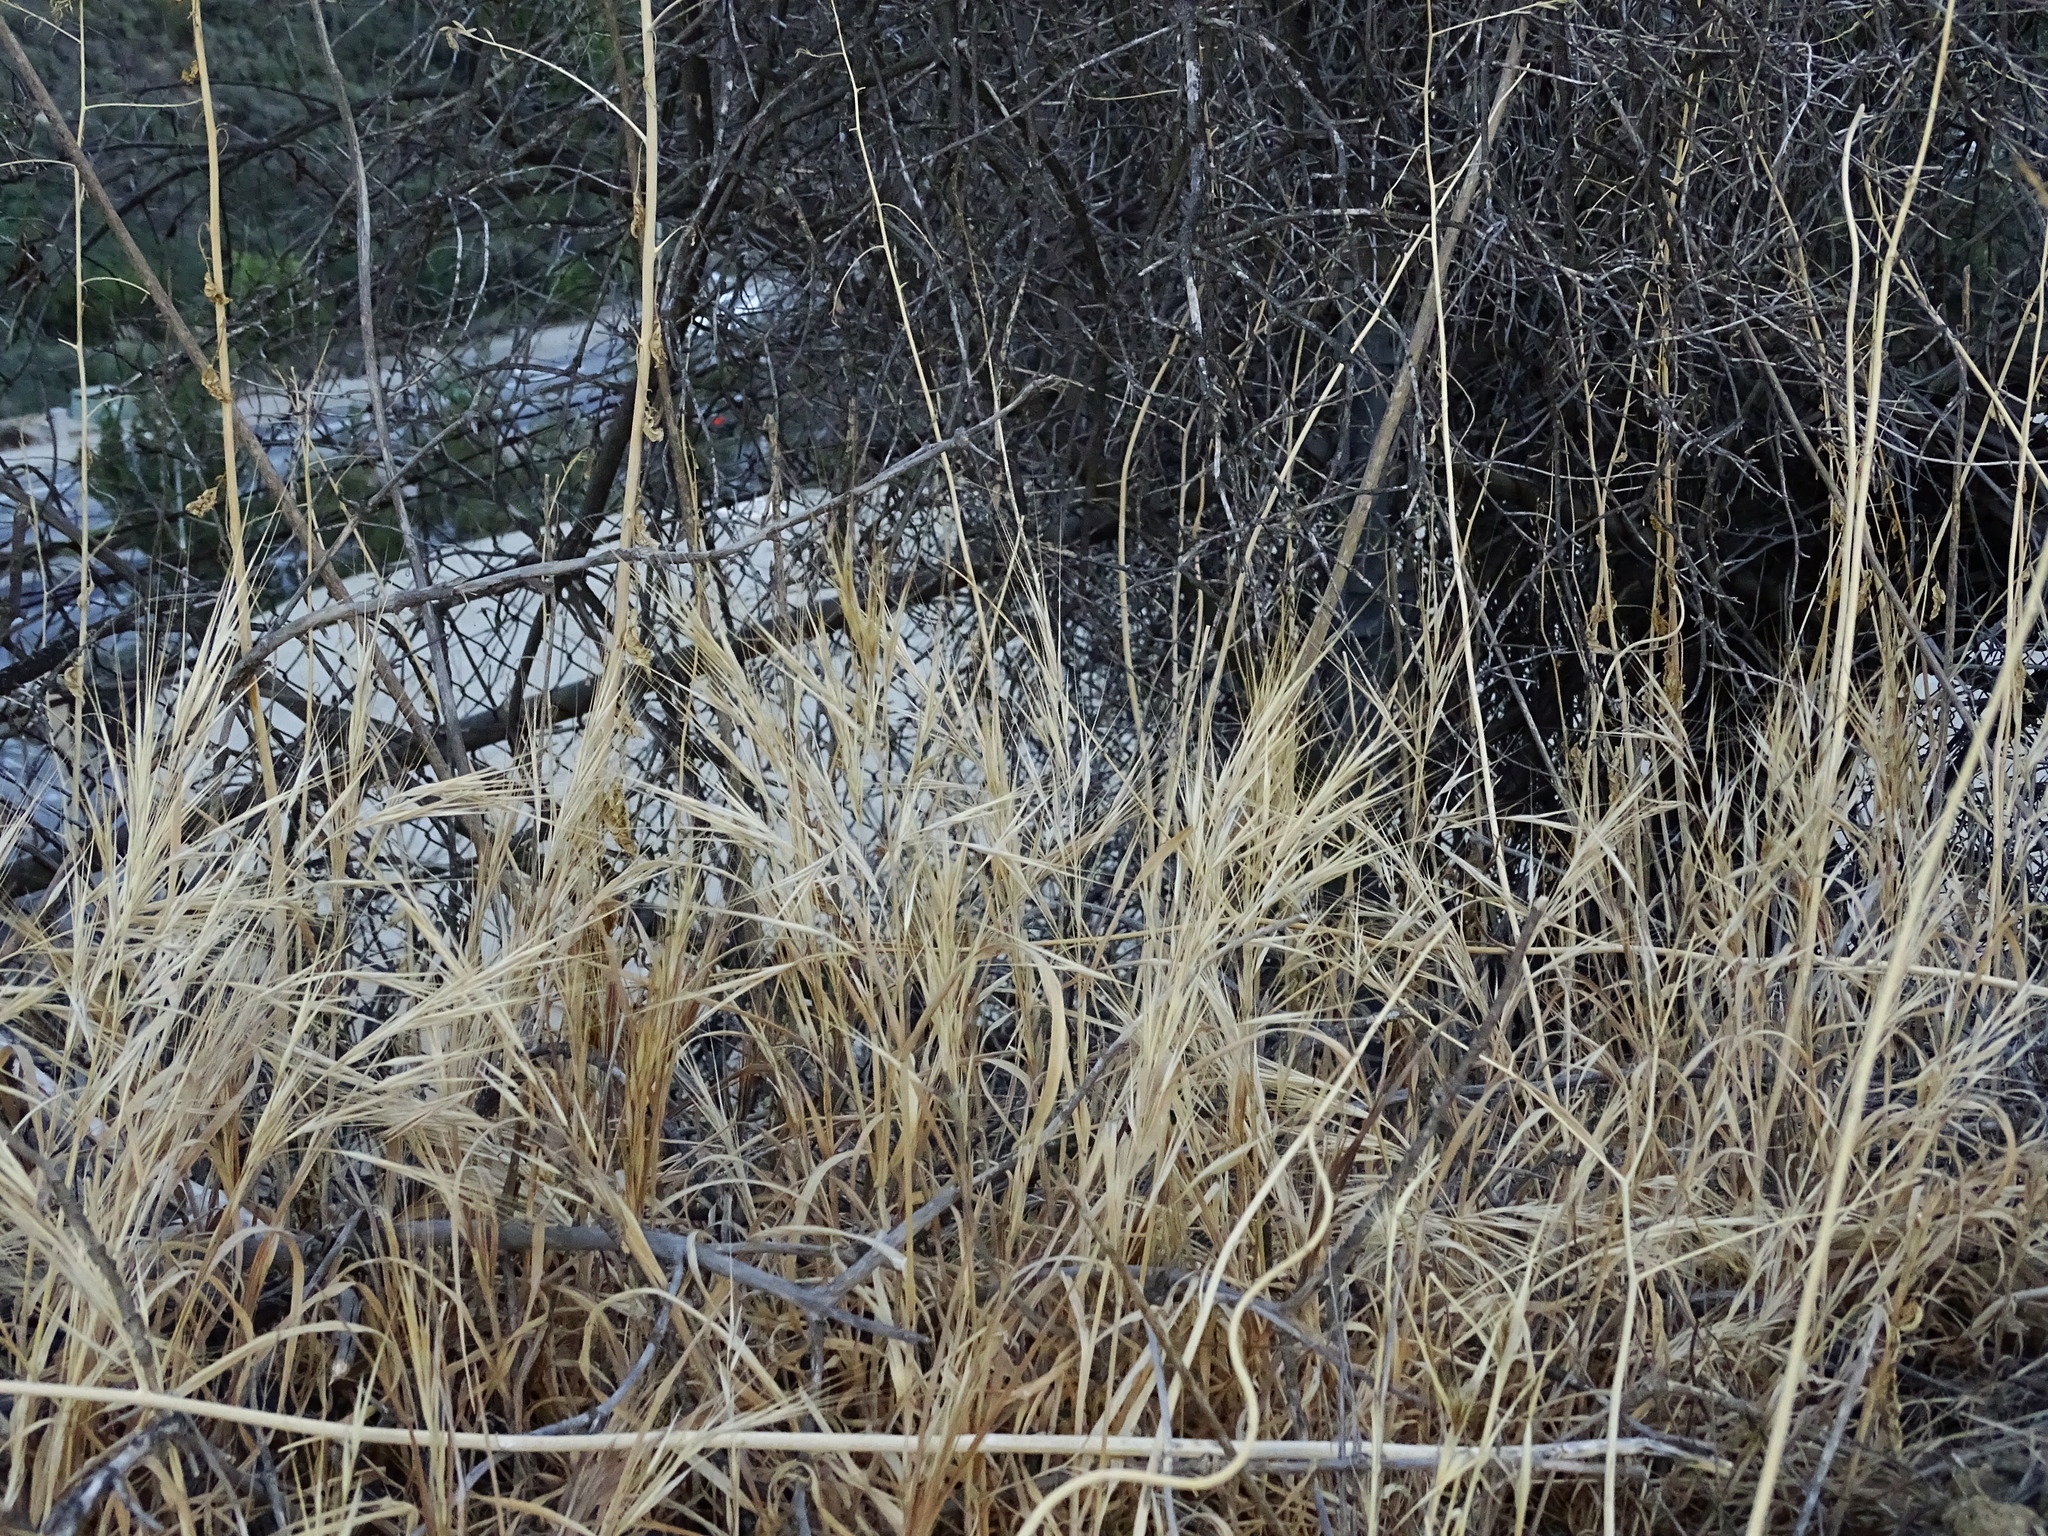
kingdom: Plantae
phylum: Tracheophyta
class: Liliopsida
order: Poales
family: Poaceae
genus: Bromus
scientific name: Bromus diandrus
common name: Ripgut brome
